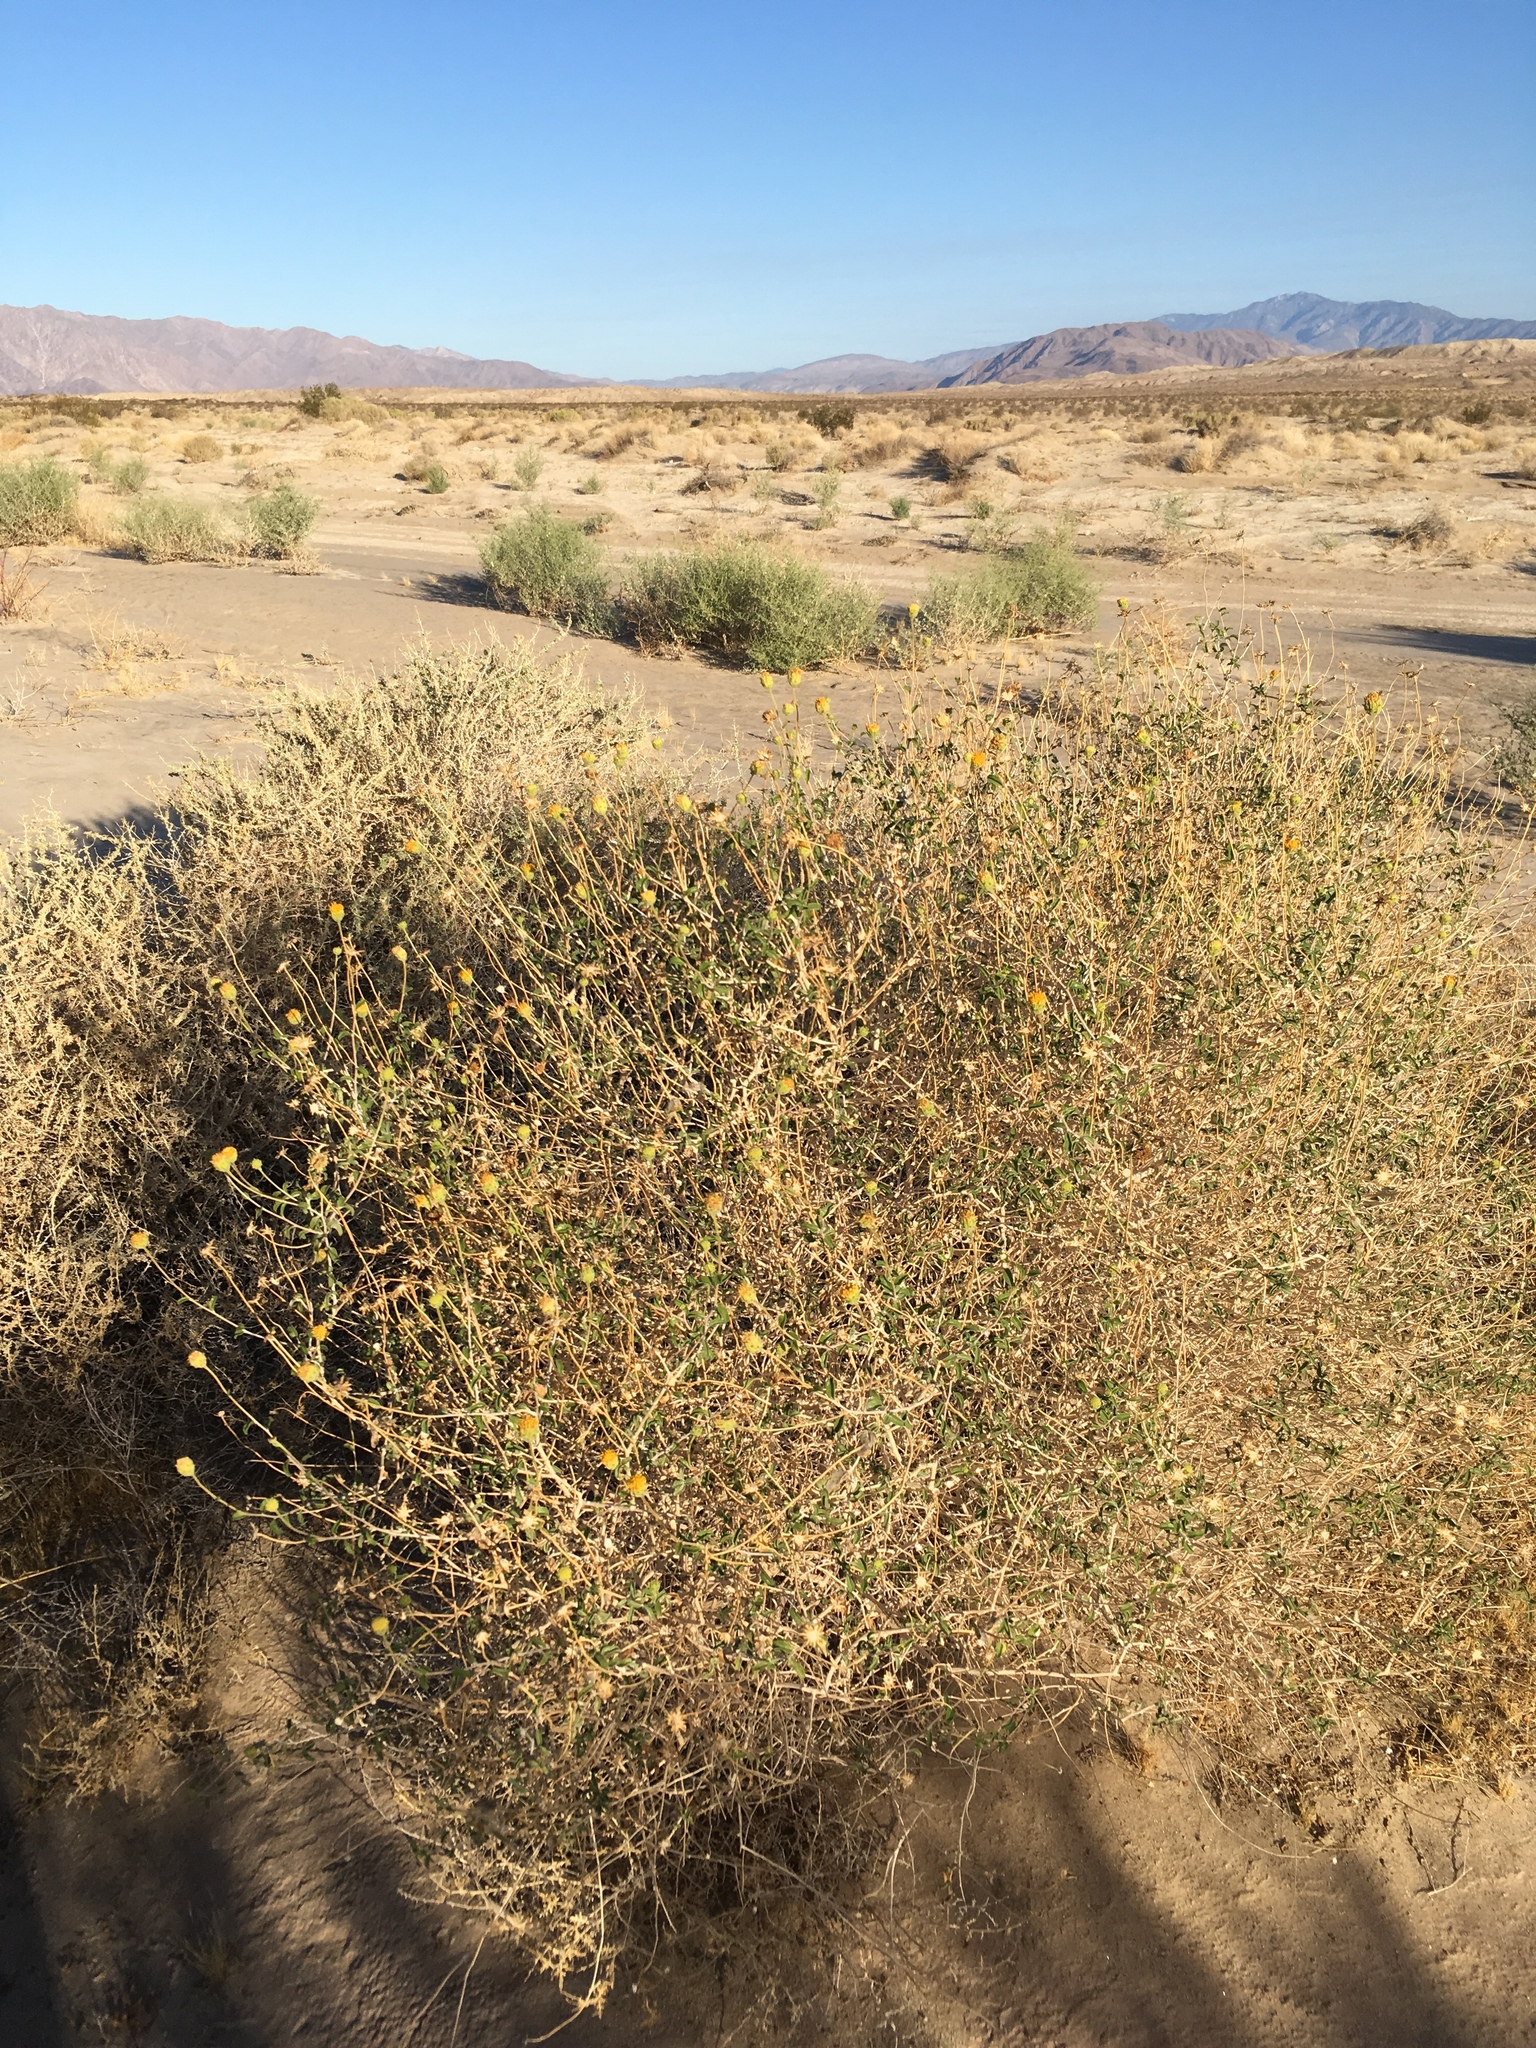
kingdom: Plantae
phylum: Tracheophyta
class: Magnoliopsida
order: Asterales
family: Asteraceae
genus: Encelia
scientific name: Encelia frutescens
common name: Bush encelia
